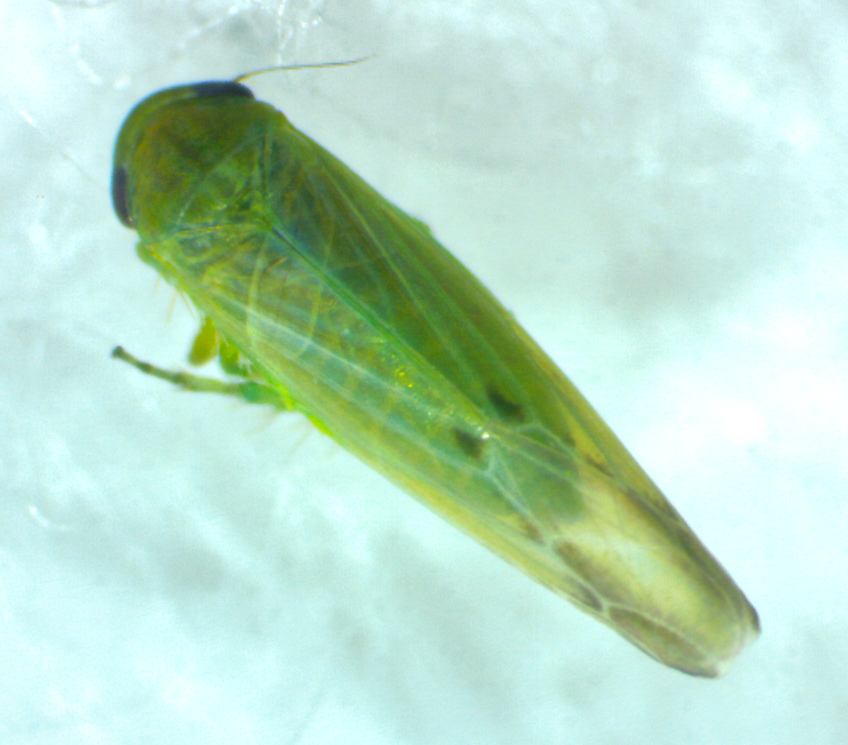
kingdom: Animalia
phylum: Arthropoda
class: Insecta
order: Hemiptera
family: Cicadellidae
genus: Balclutha
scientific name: Balclutha incisa
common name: Sugarcane planthopper
